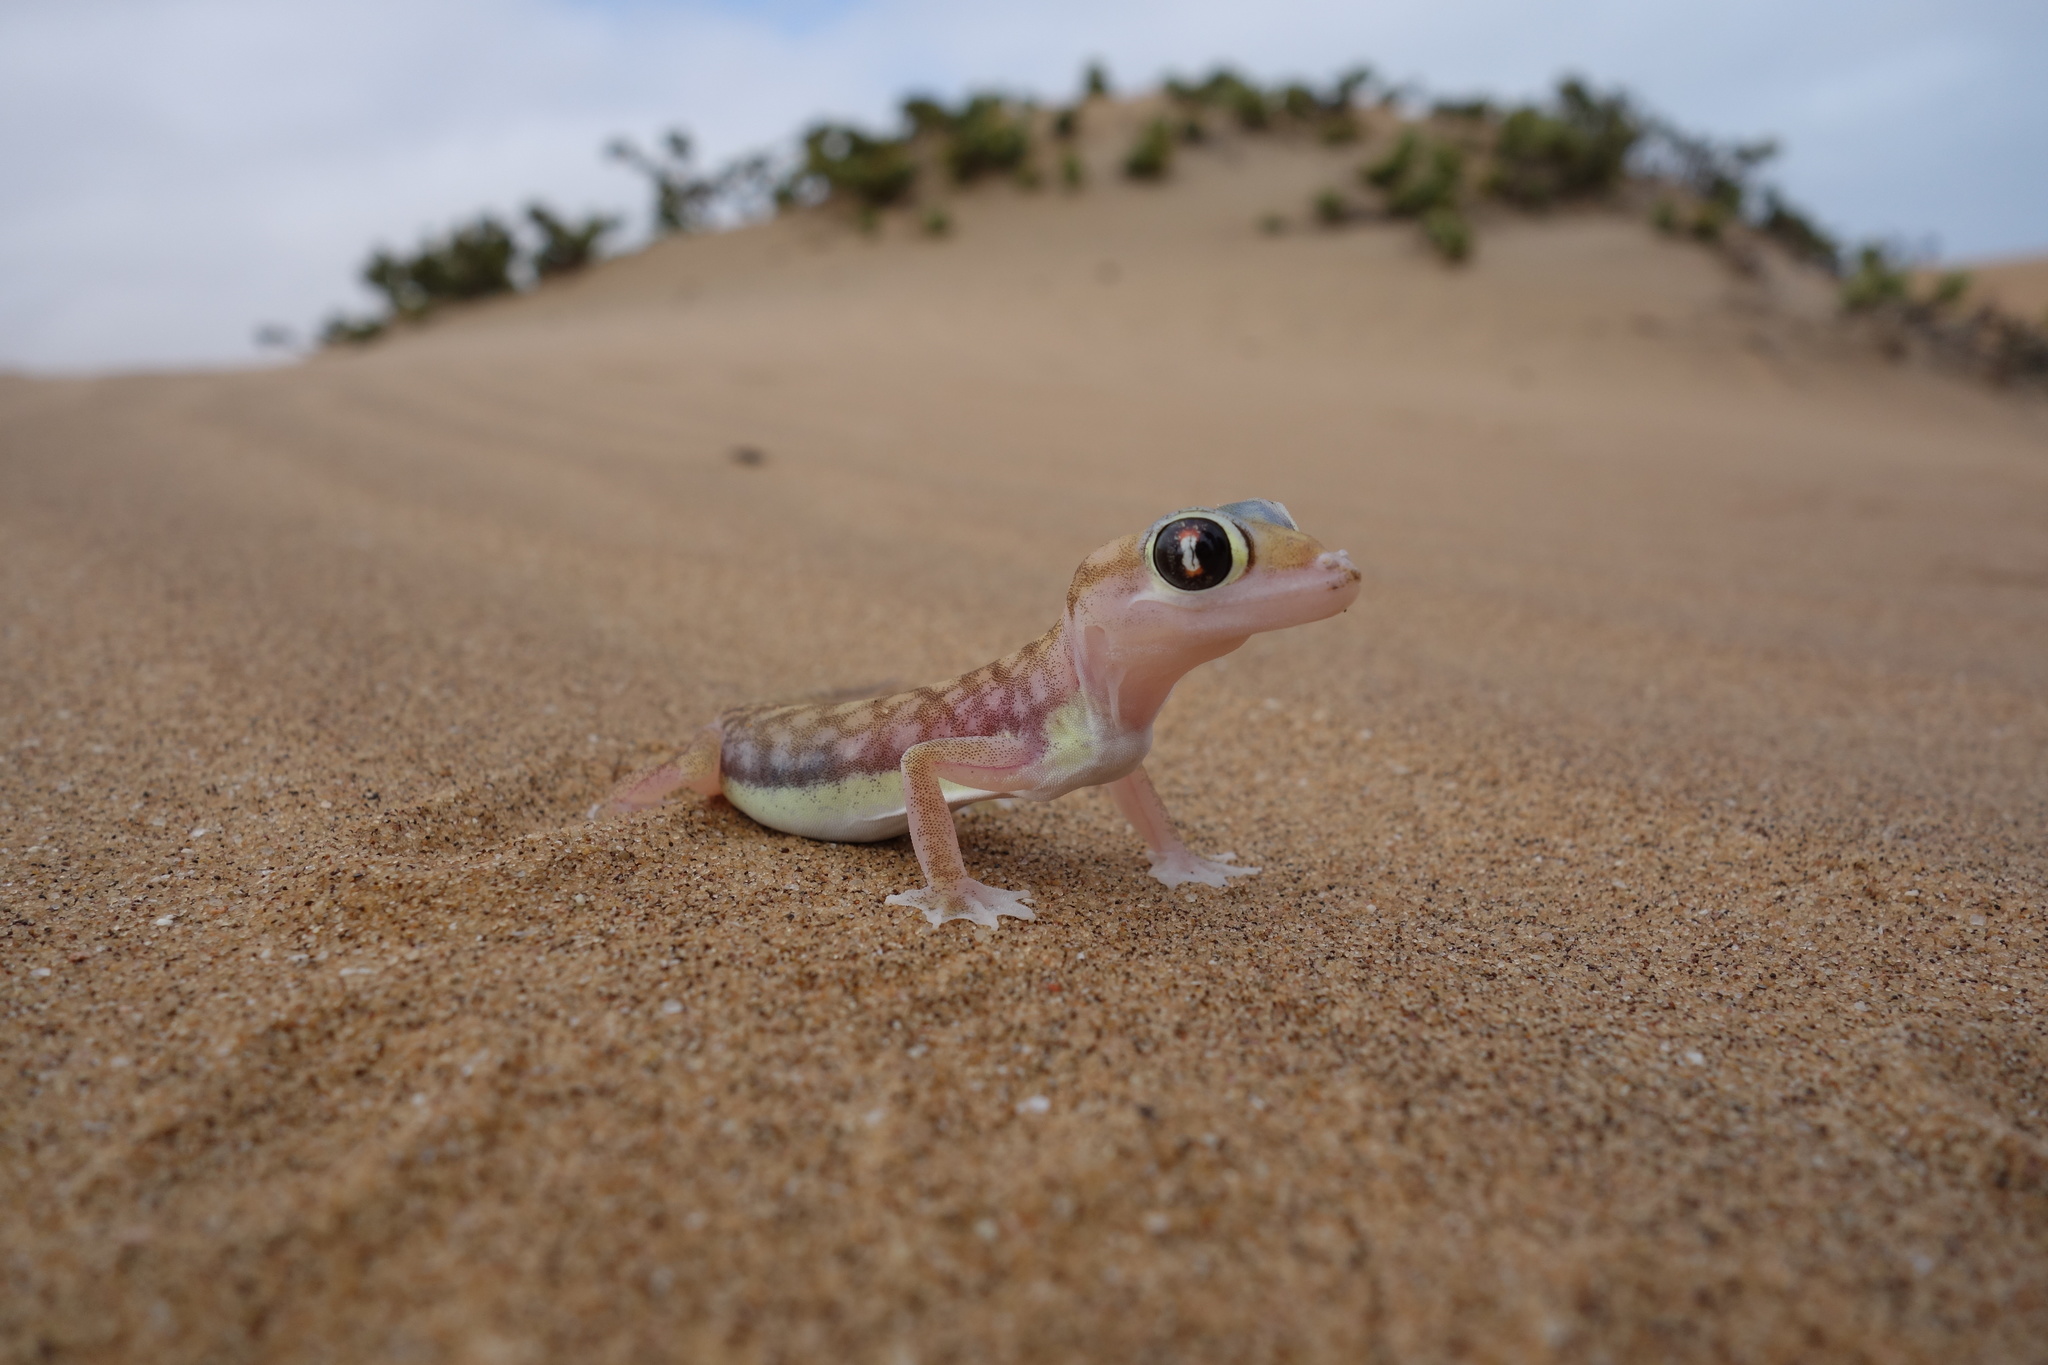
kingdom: Animalia
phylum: Chordata
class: Squamata
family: Gekkonidae
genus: Pachydactylus
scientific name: Pachydactylus rangei
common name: Namib sand gecko
